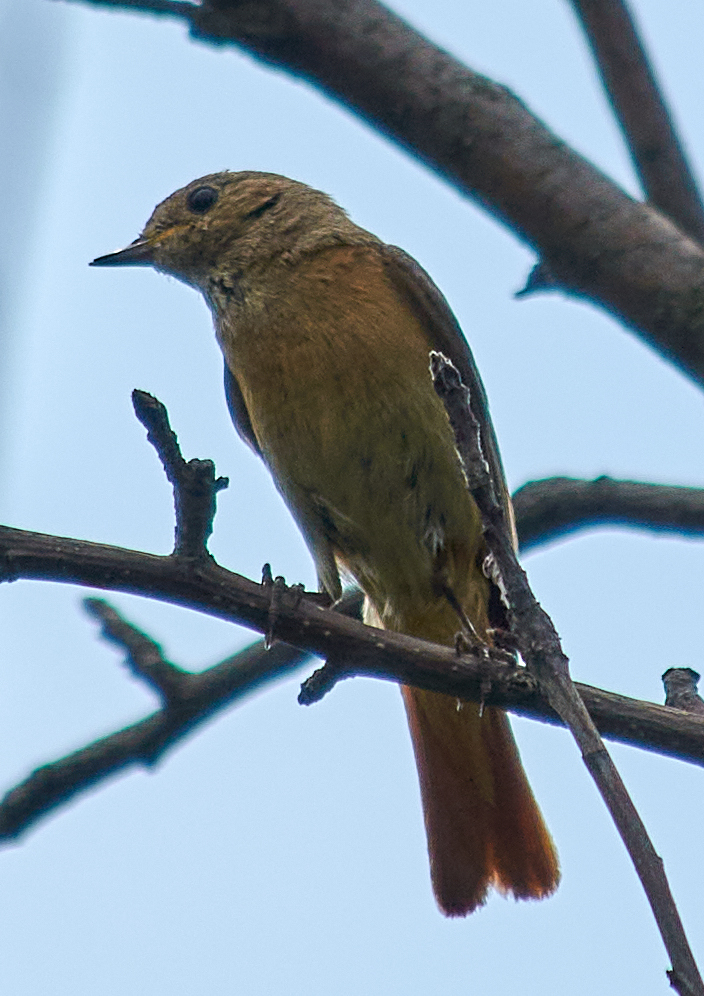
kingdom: Animalia
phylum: Chordata
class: Aves
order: Passeriformes
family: Muscicapidae
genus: Phoenicurus
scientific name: Phoenicurus phoenicurus
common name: Common redstart
